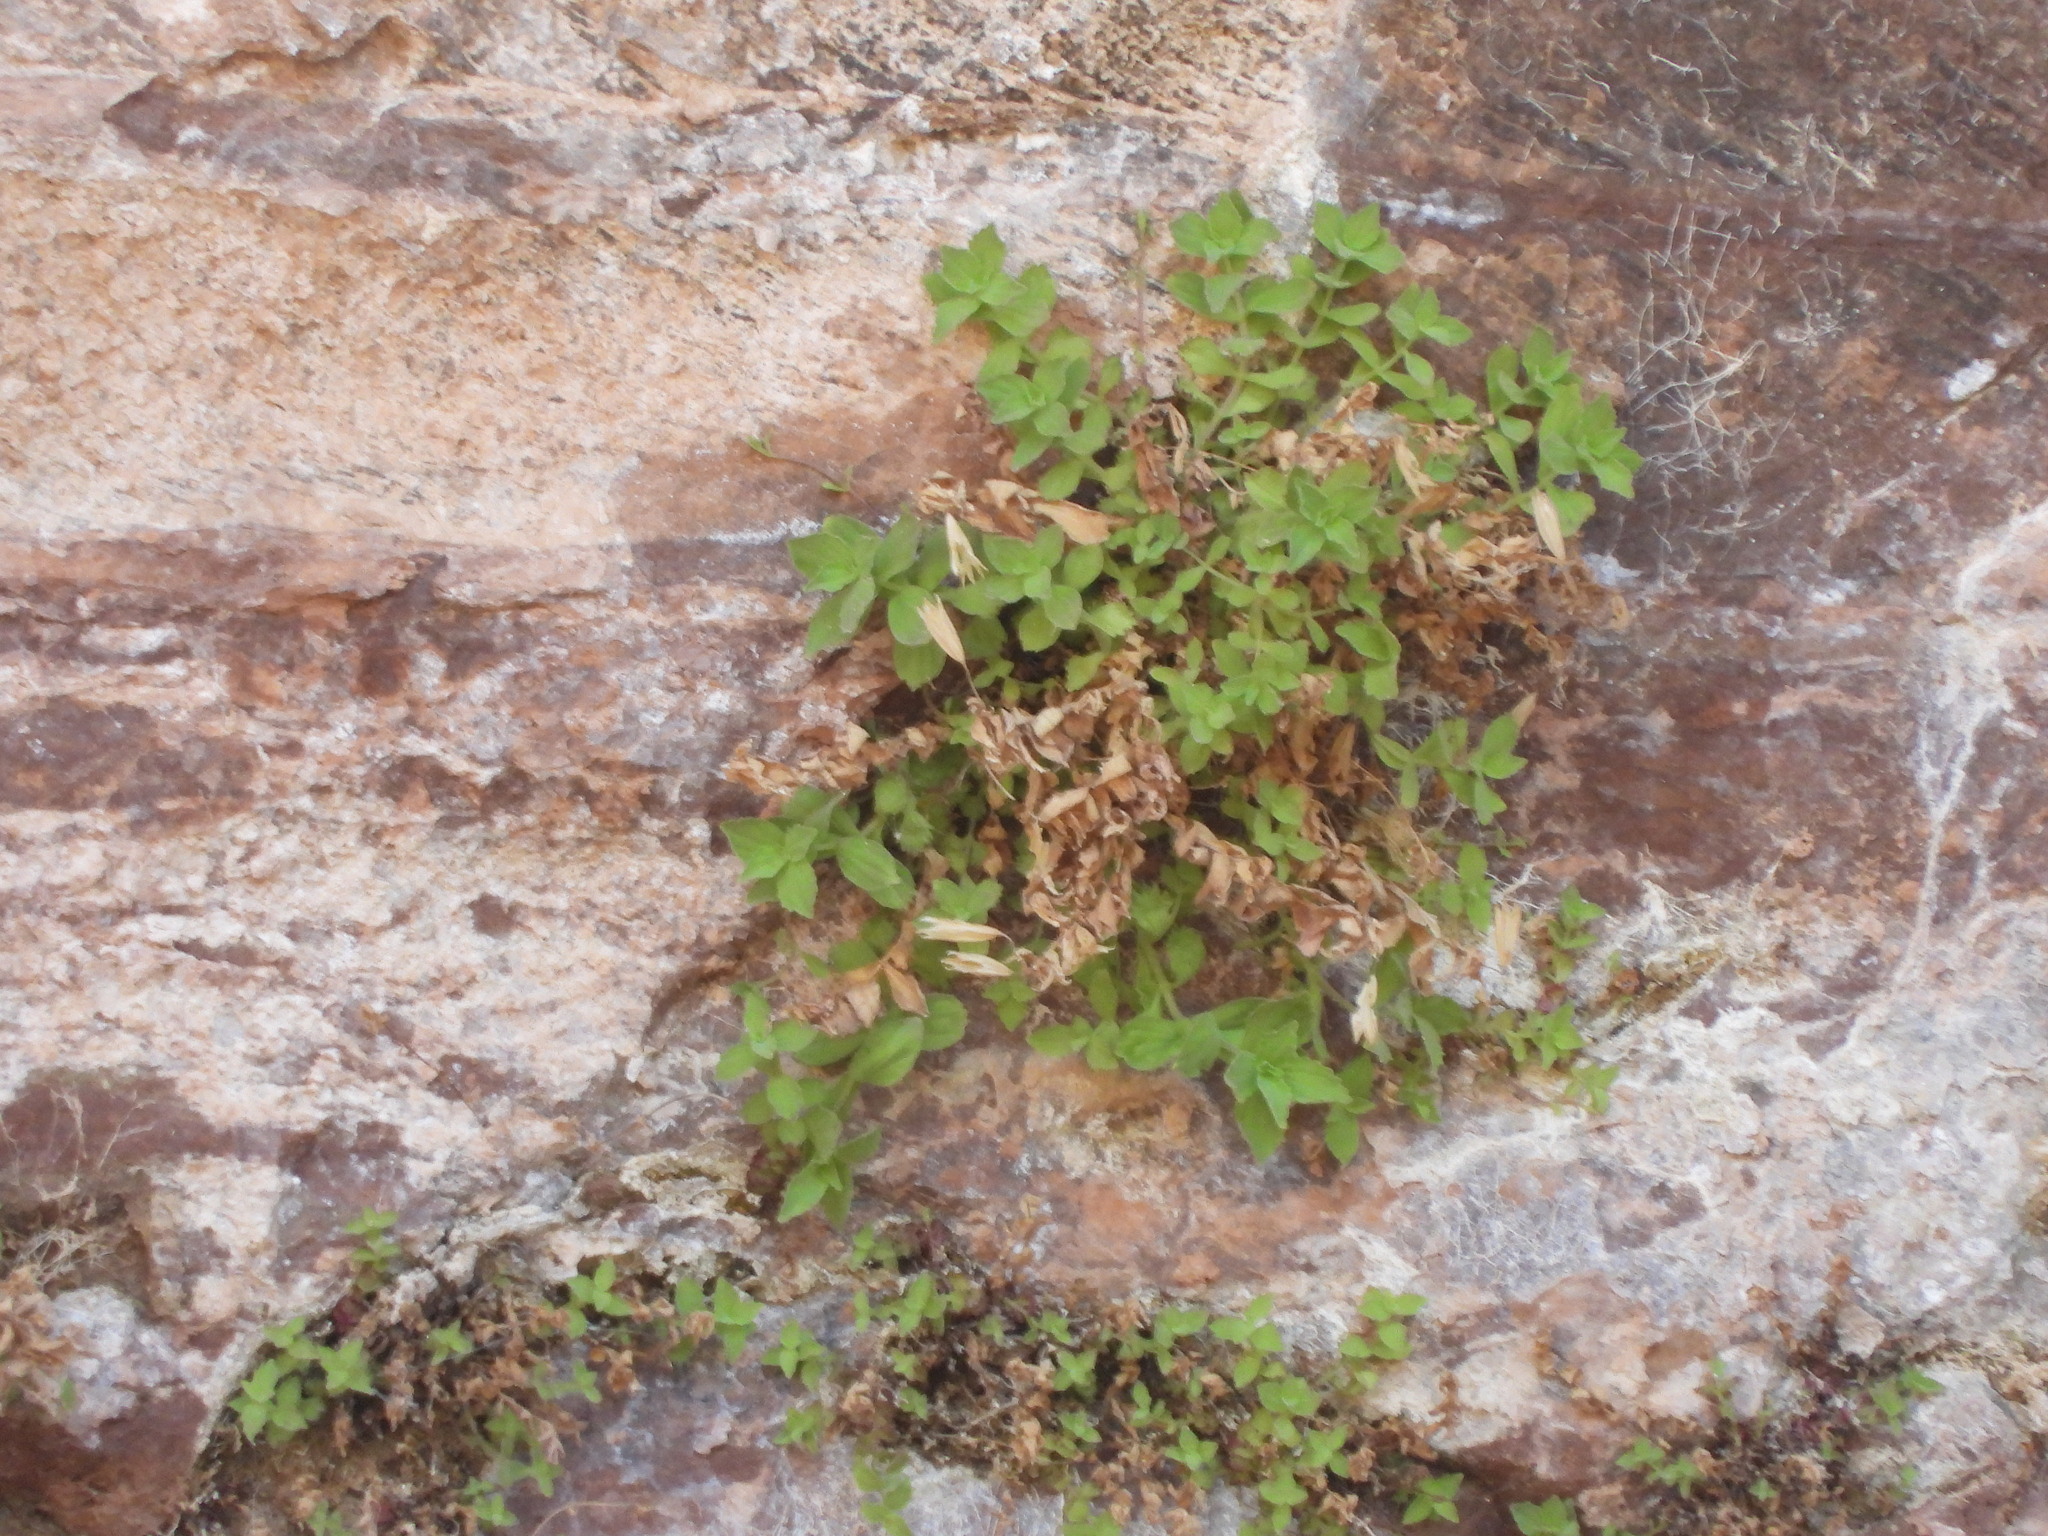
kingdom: Plantae
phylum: Tracheophyta
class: Magnoliopsida
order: Lamiales
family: Phrymaceae
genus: Erythranthe
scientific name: Erythranthe eastwoodiae
